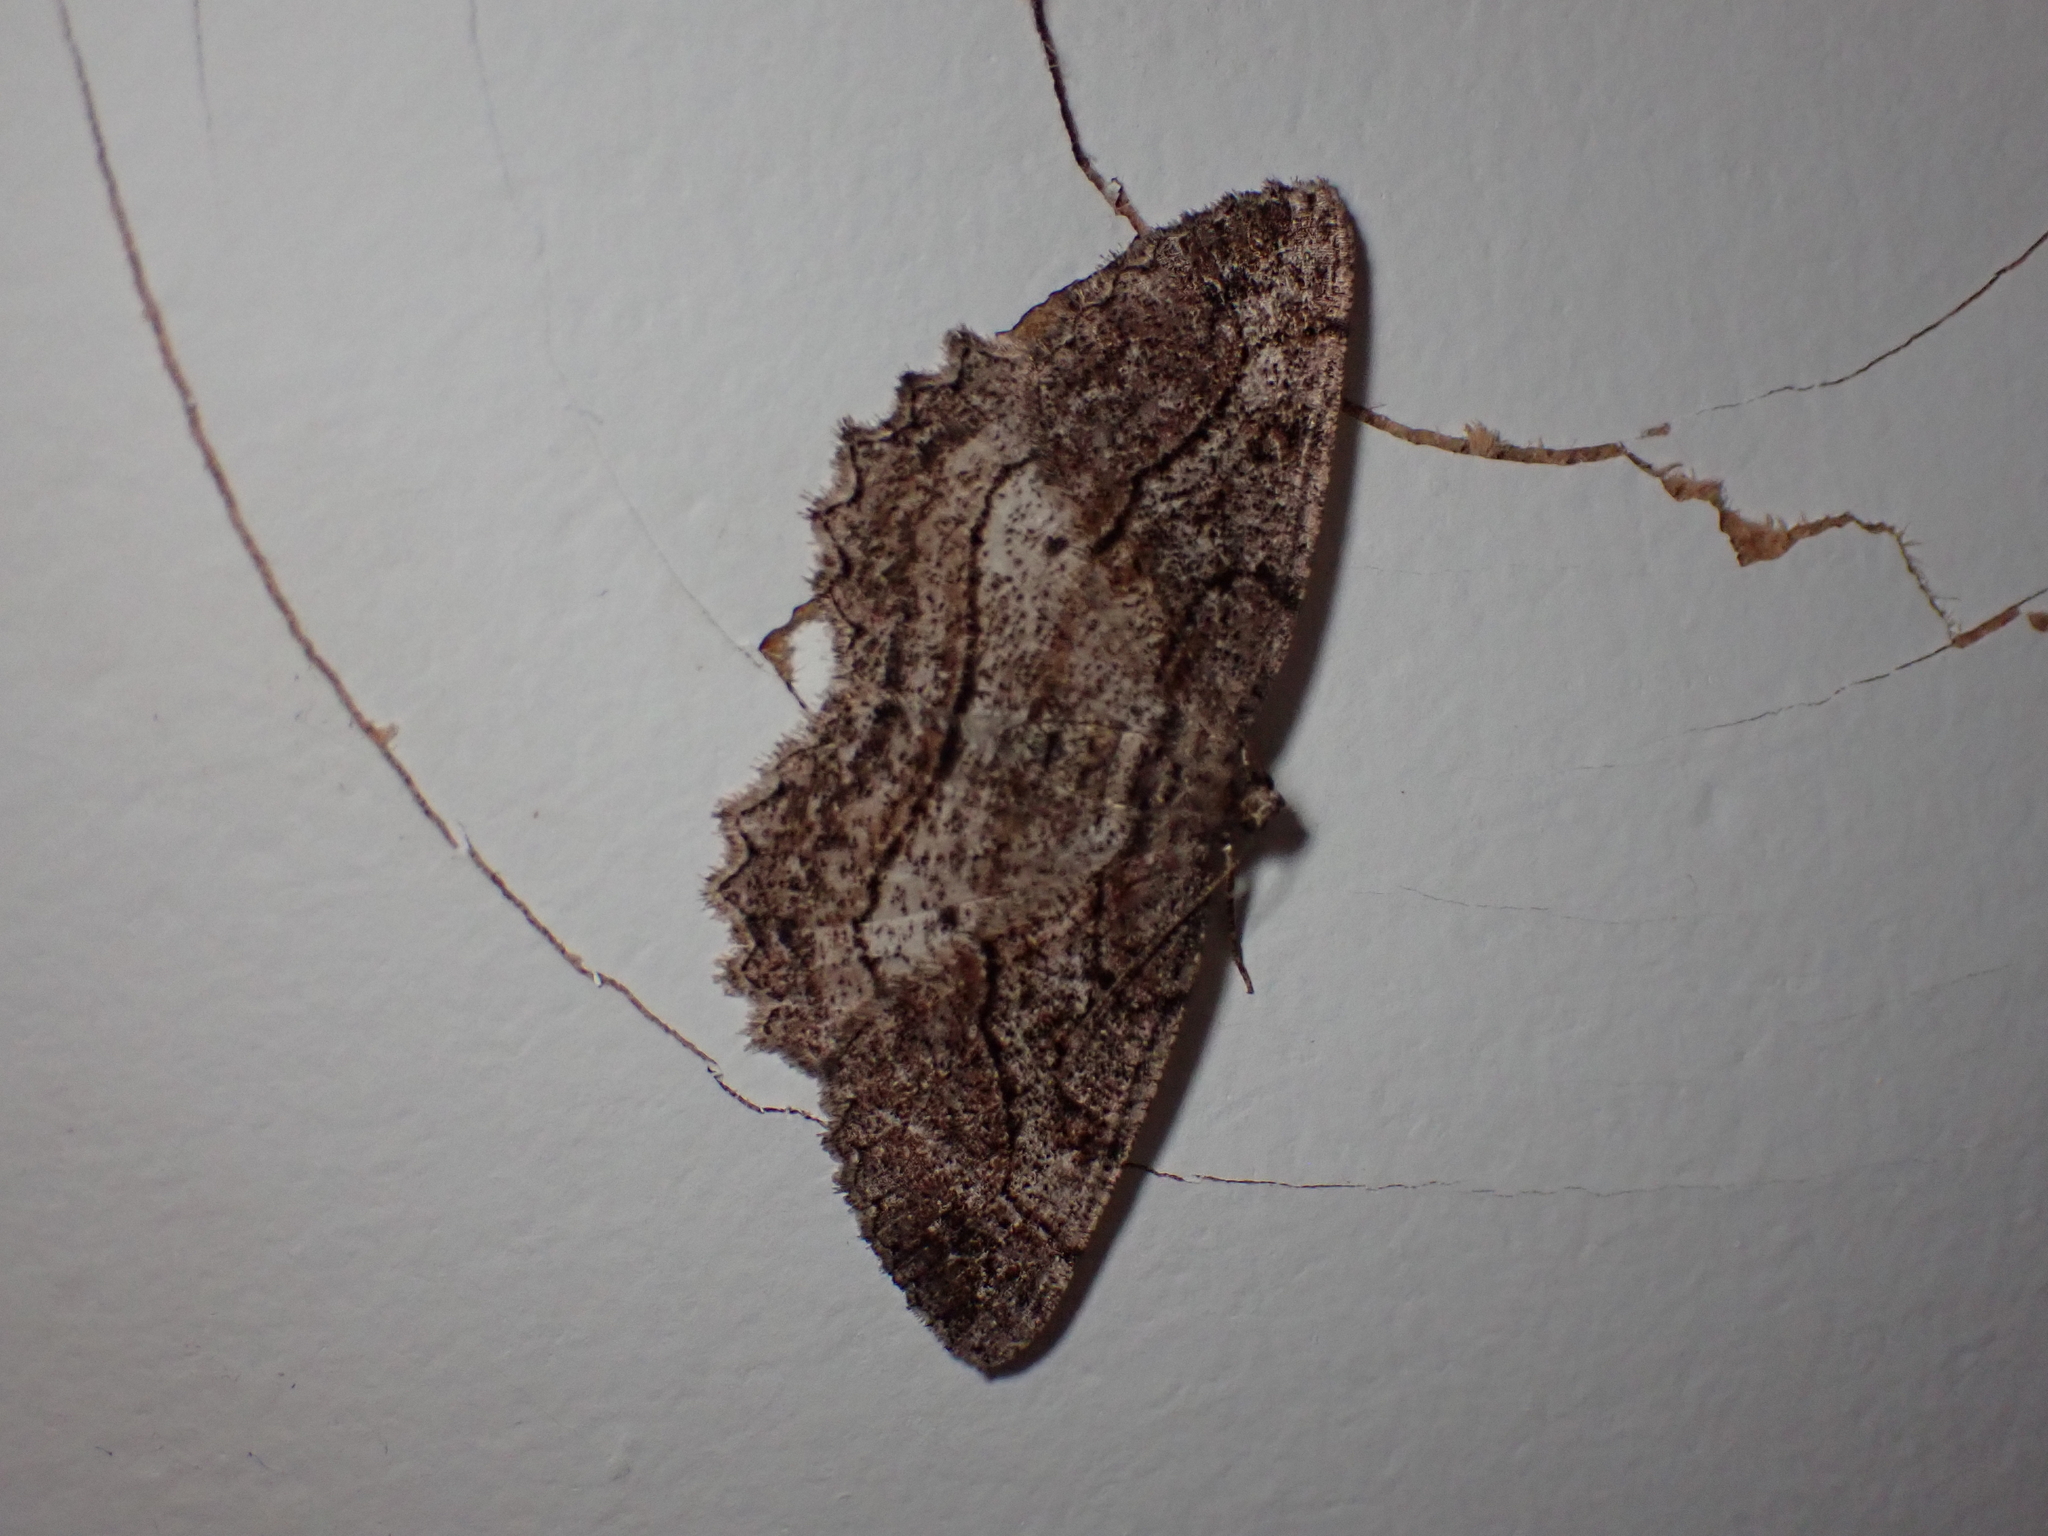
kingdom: Animalia
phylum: Arthropoda
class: Insecta
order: Lepidoptera
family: Geometridae
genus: Neoalcis
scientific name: Neoalcis californiaria
